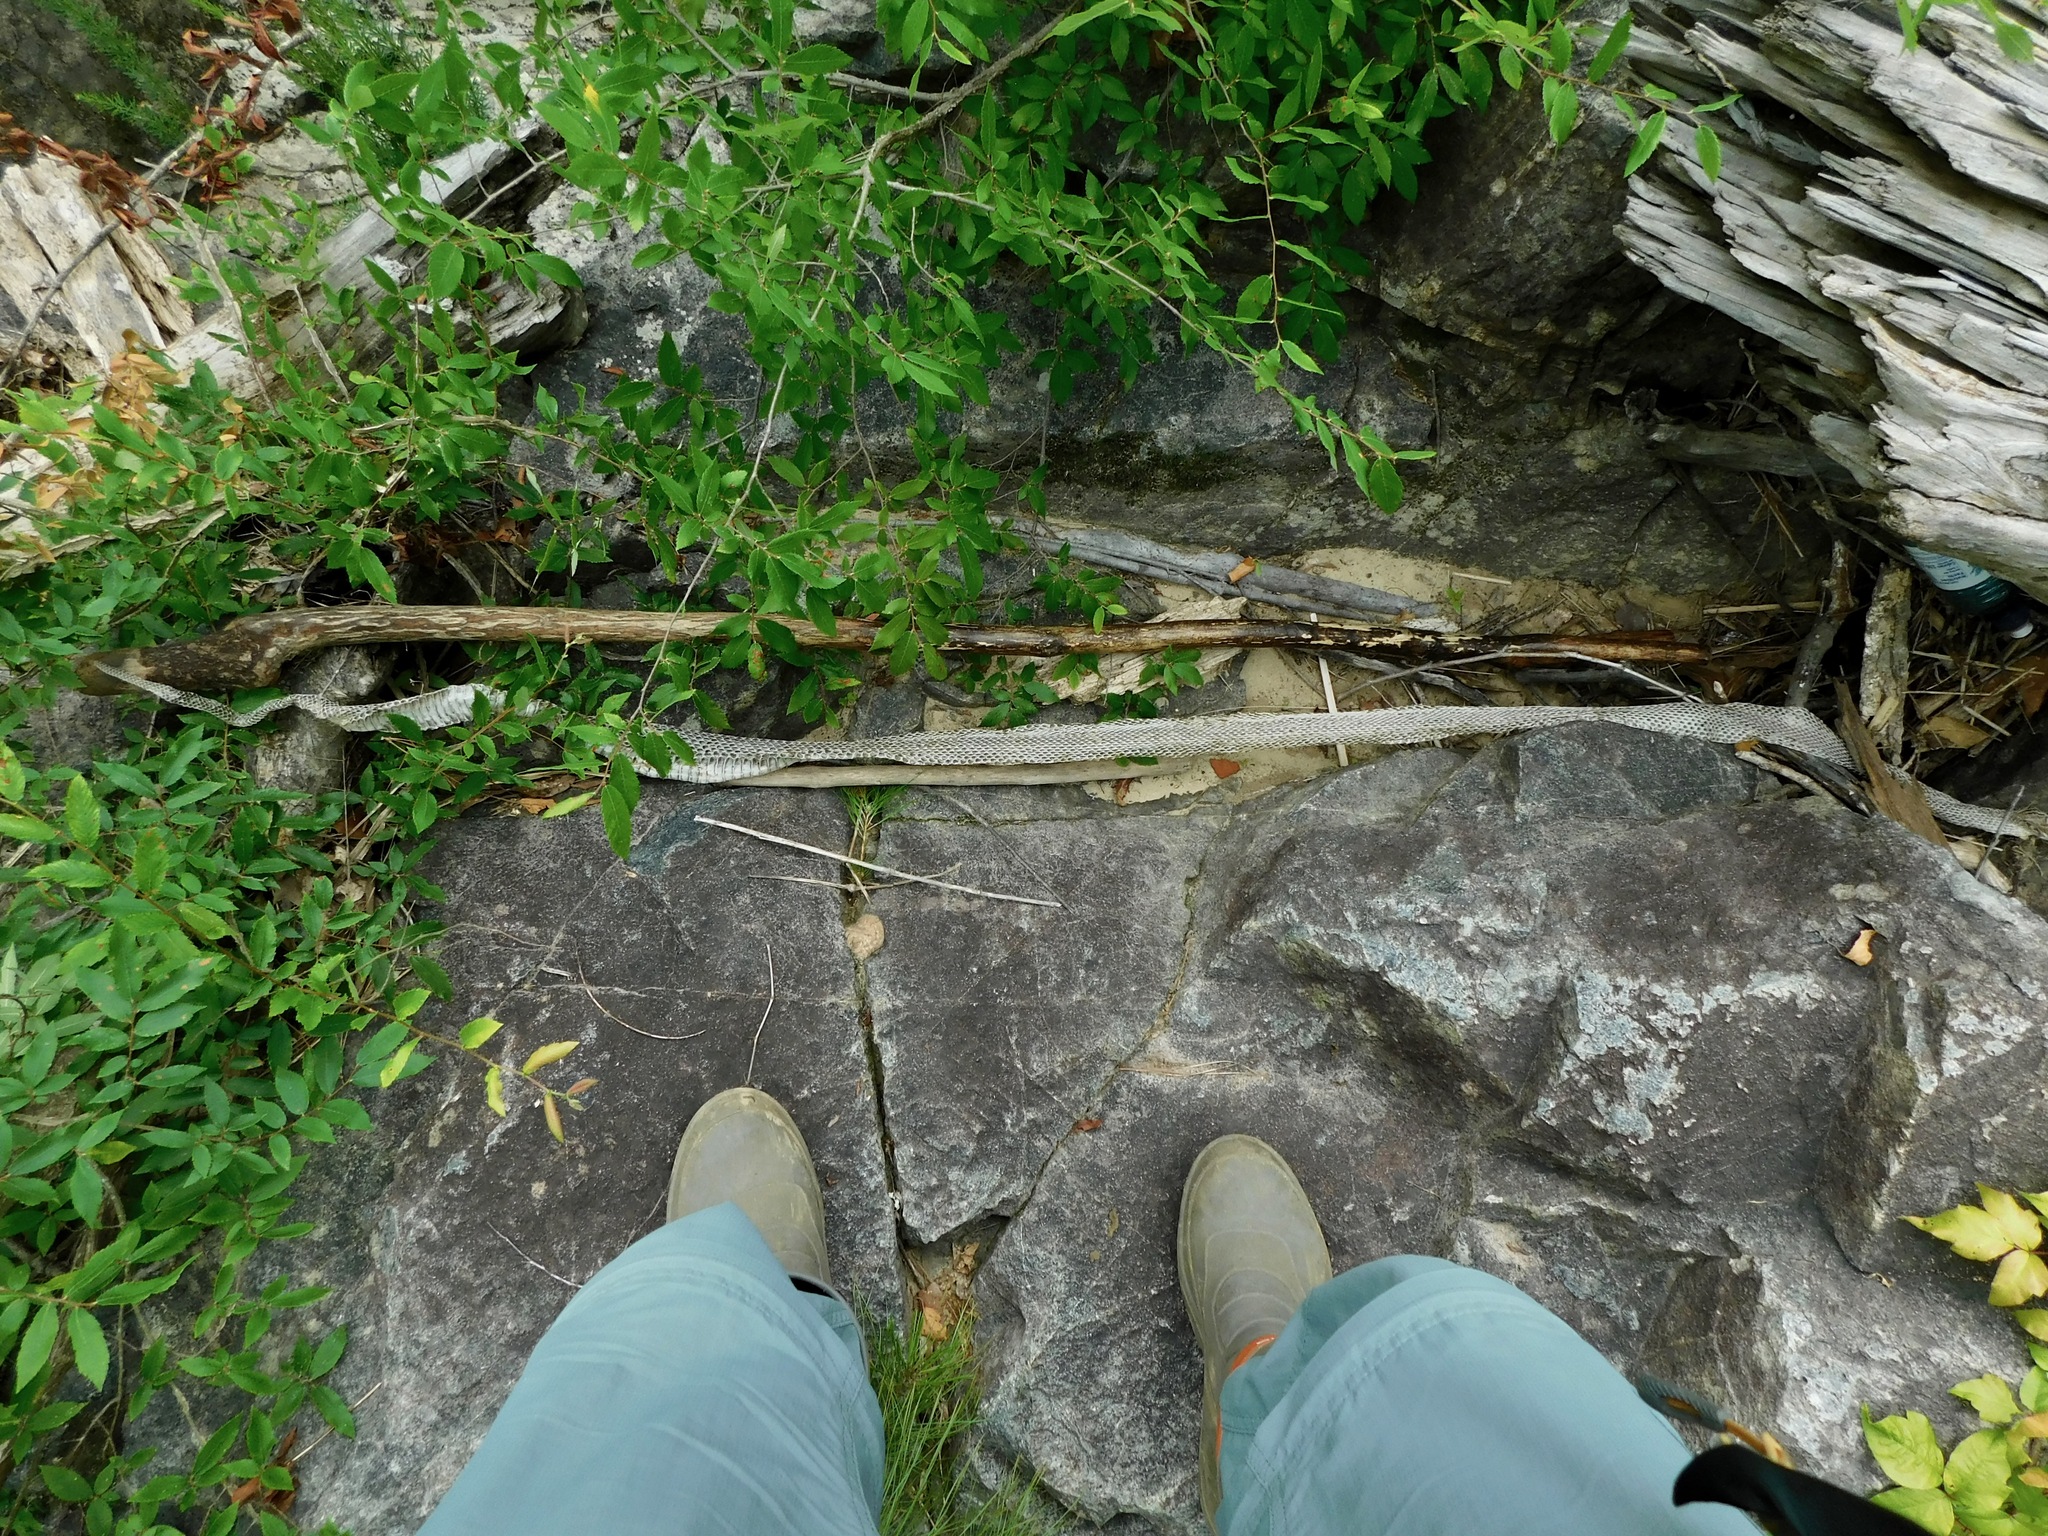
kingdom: Animalia
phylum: Chordata
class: Squamata
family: Colubridae
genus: Pantherophis
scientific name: Pantherophis
